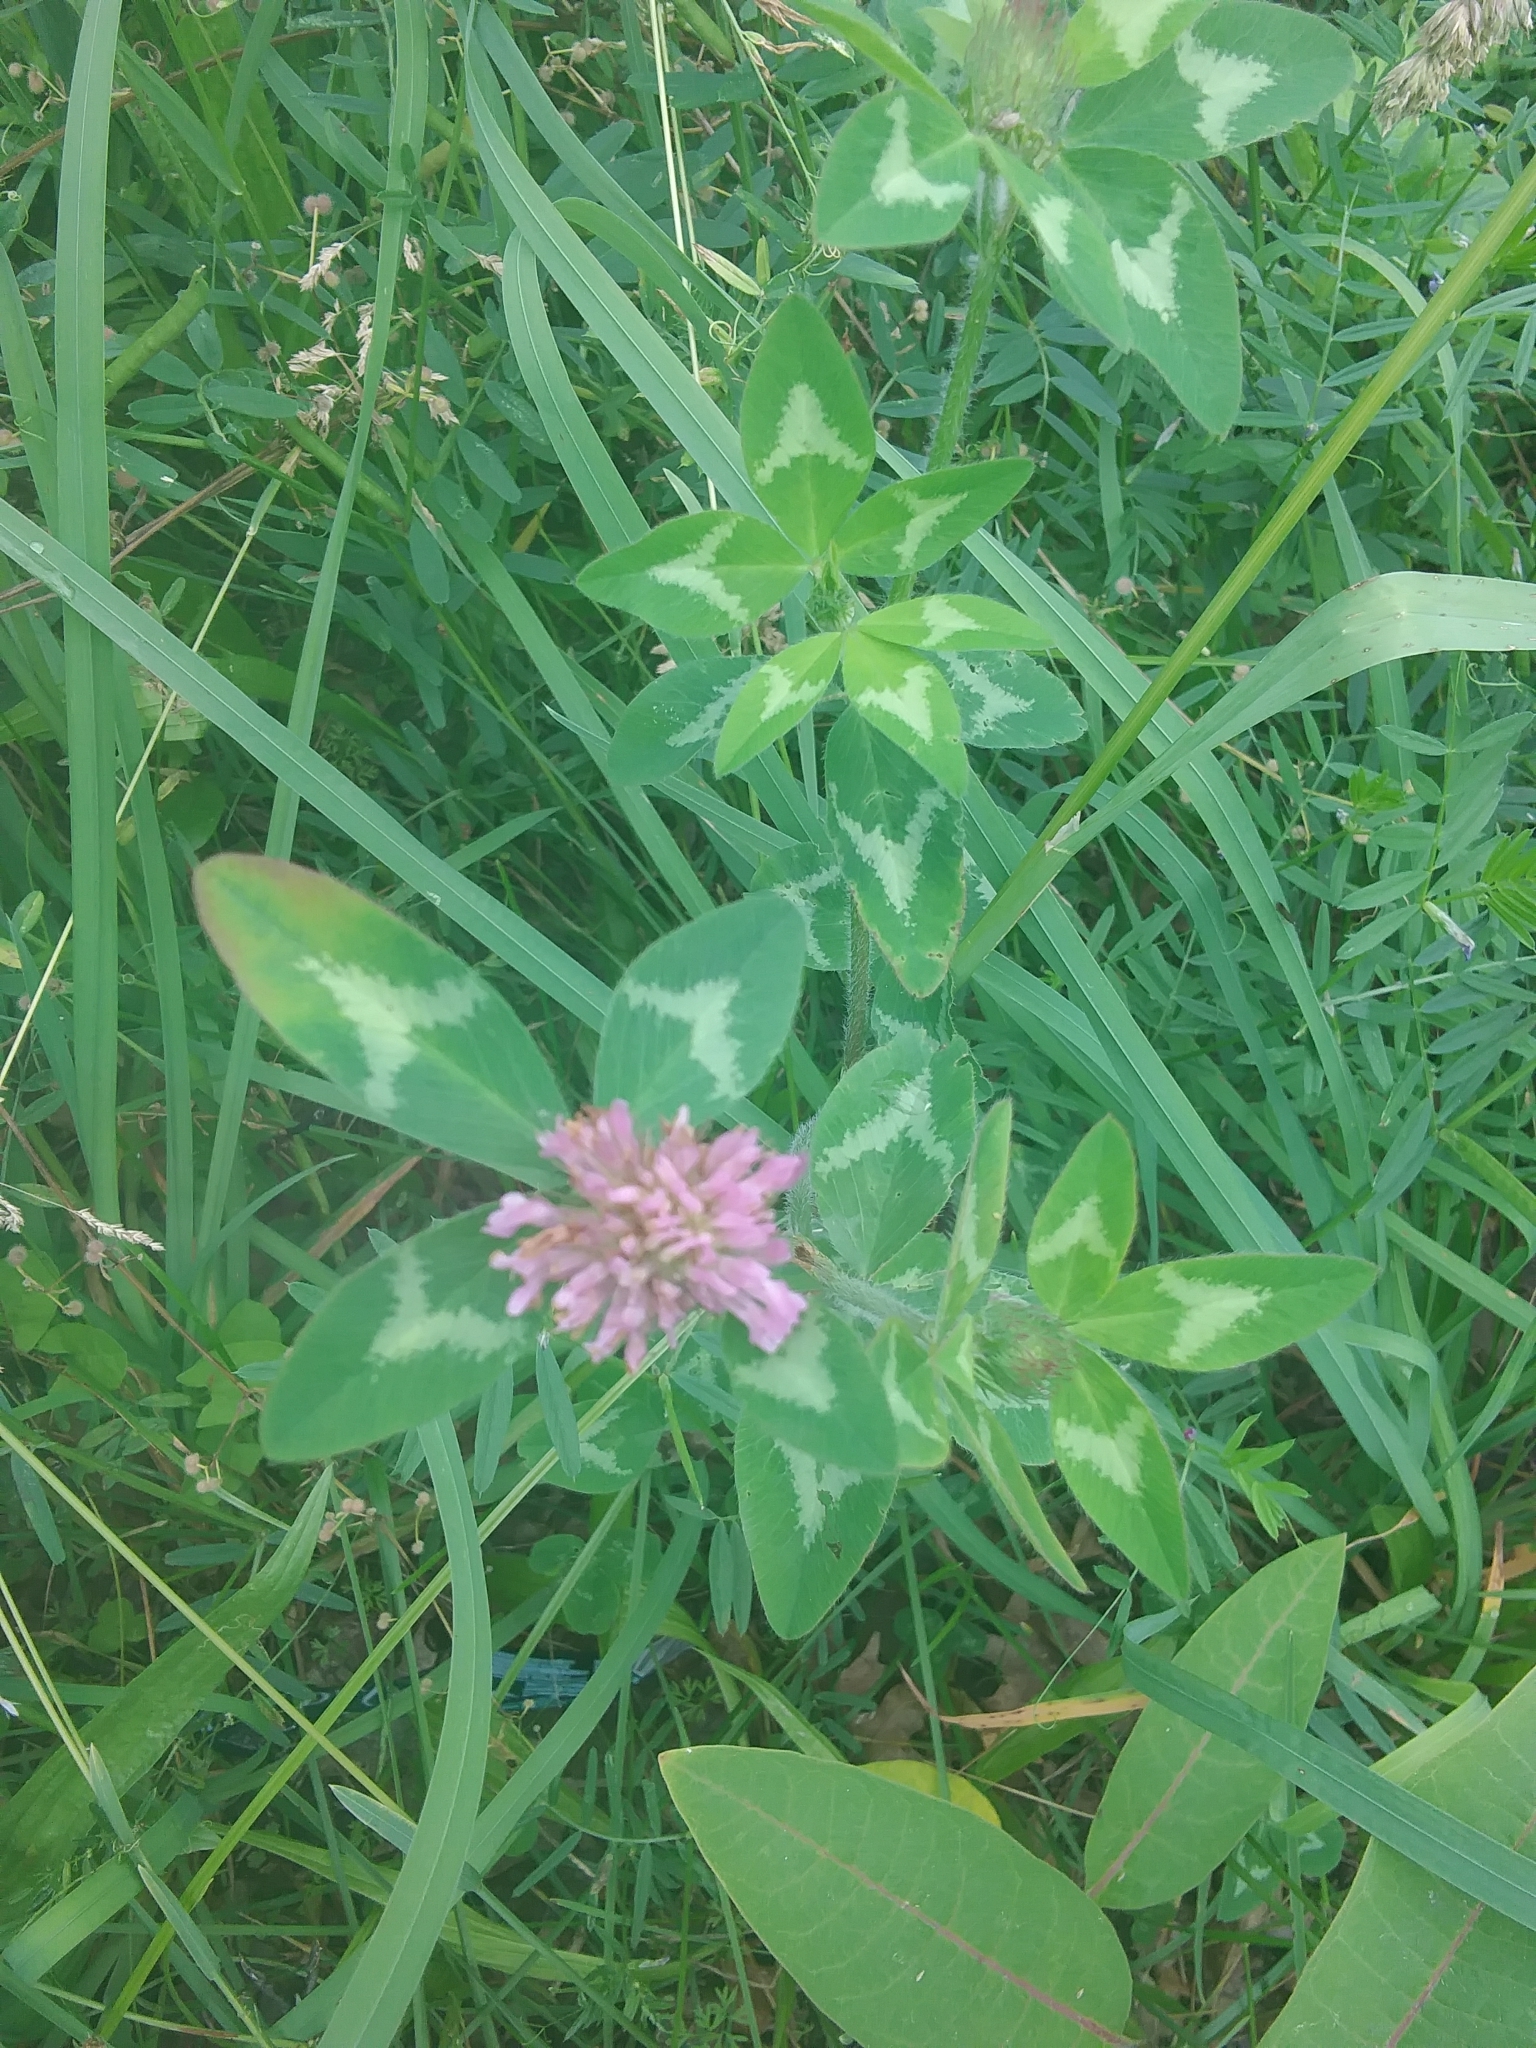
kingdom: Plantae
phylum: Tracheophyta
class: Magnoliopsida
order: Fabales
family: Fabaceae
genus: Trifolium
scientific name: Trifolium pratense
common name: Red clover
